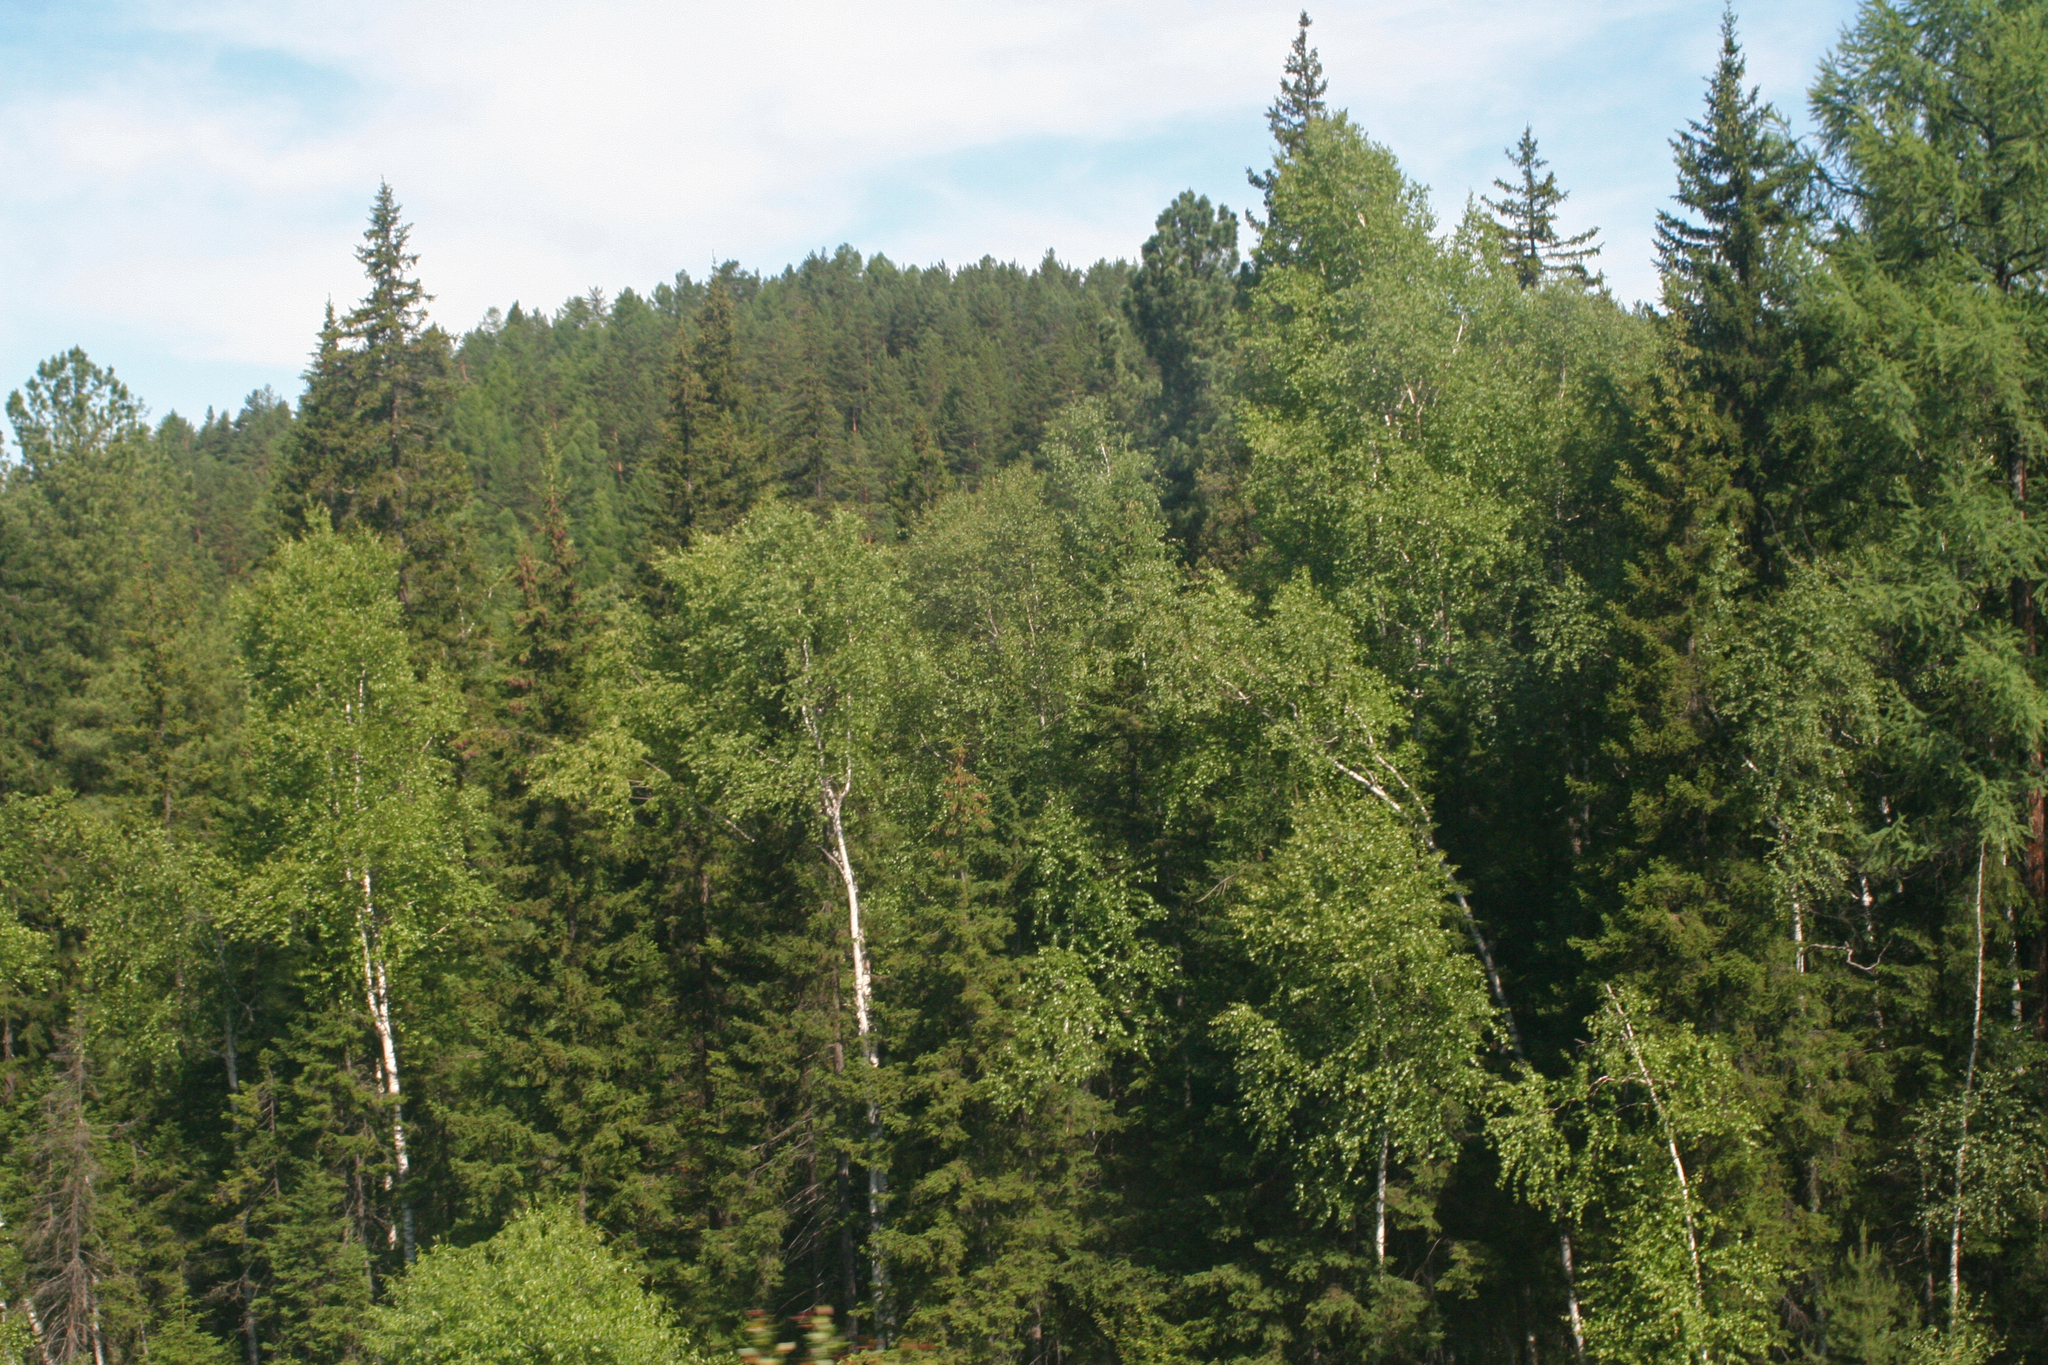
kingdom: Plantae
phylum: Tracheophyta
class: Pinopsida
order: Pinales
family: Pinaceae
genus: Picea
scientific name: Picea obovata
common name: Siberian spruce
